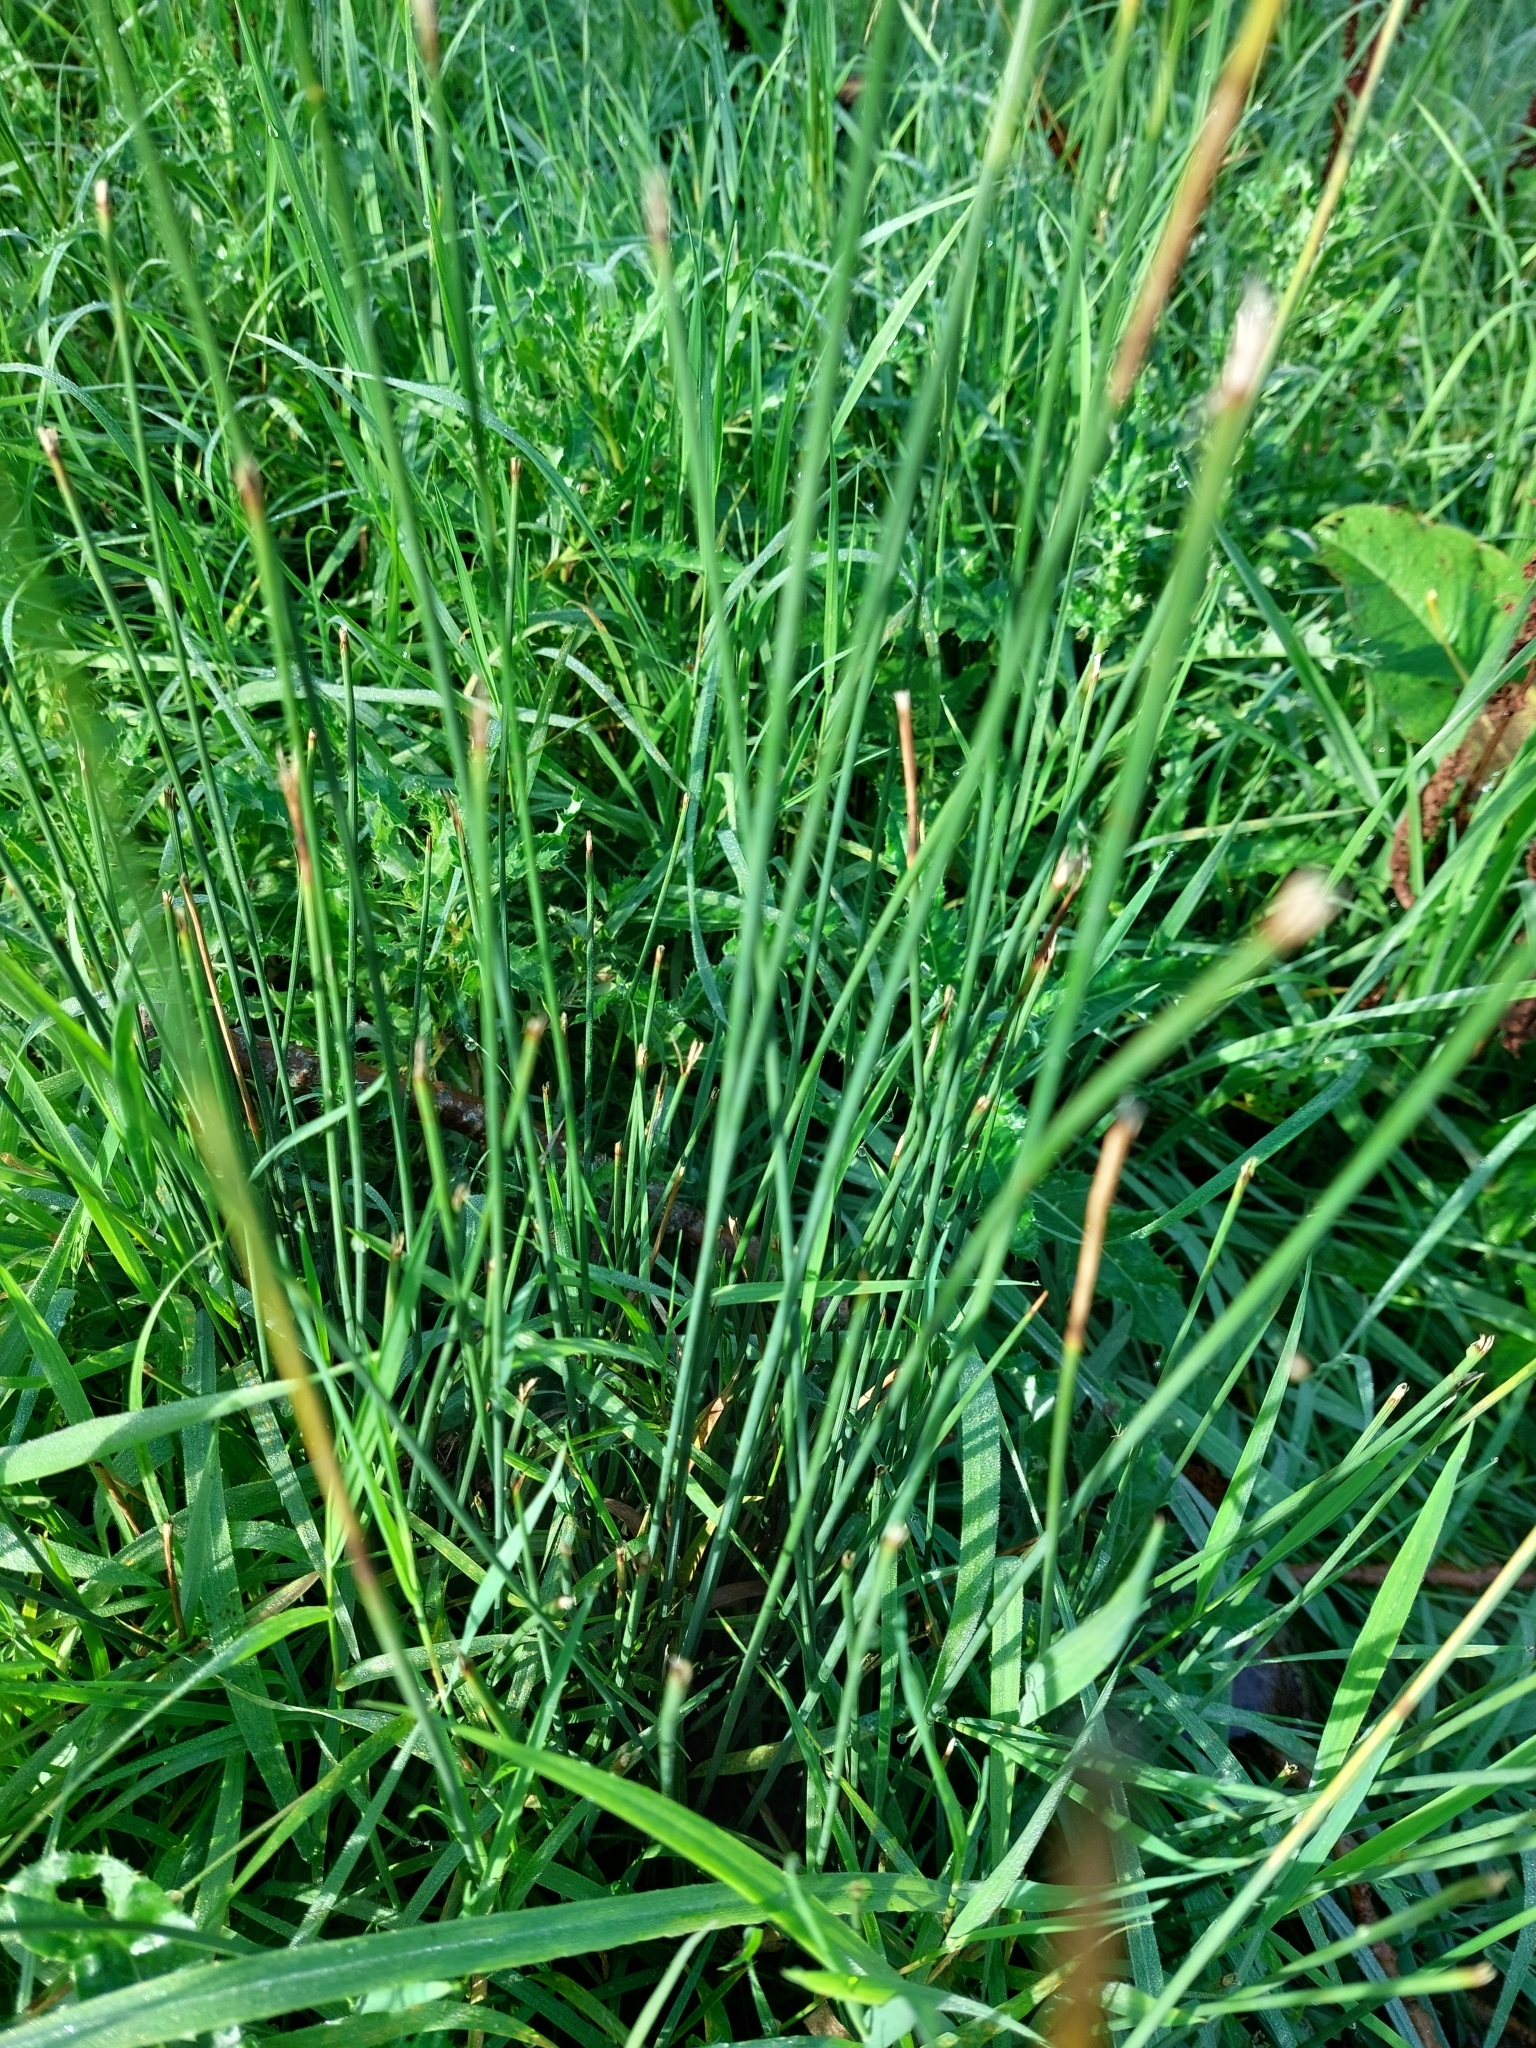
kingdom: Plantae
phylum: Tracheophyta
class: Liliopsida
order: Poales
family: Juncaceae
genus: Juncus
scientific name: Juncus inflexus
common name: Hard rush
